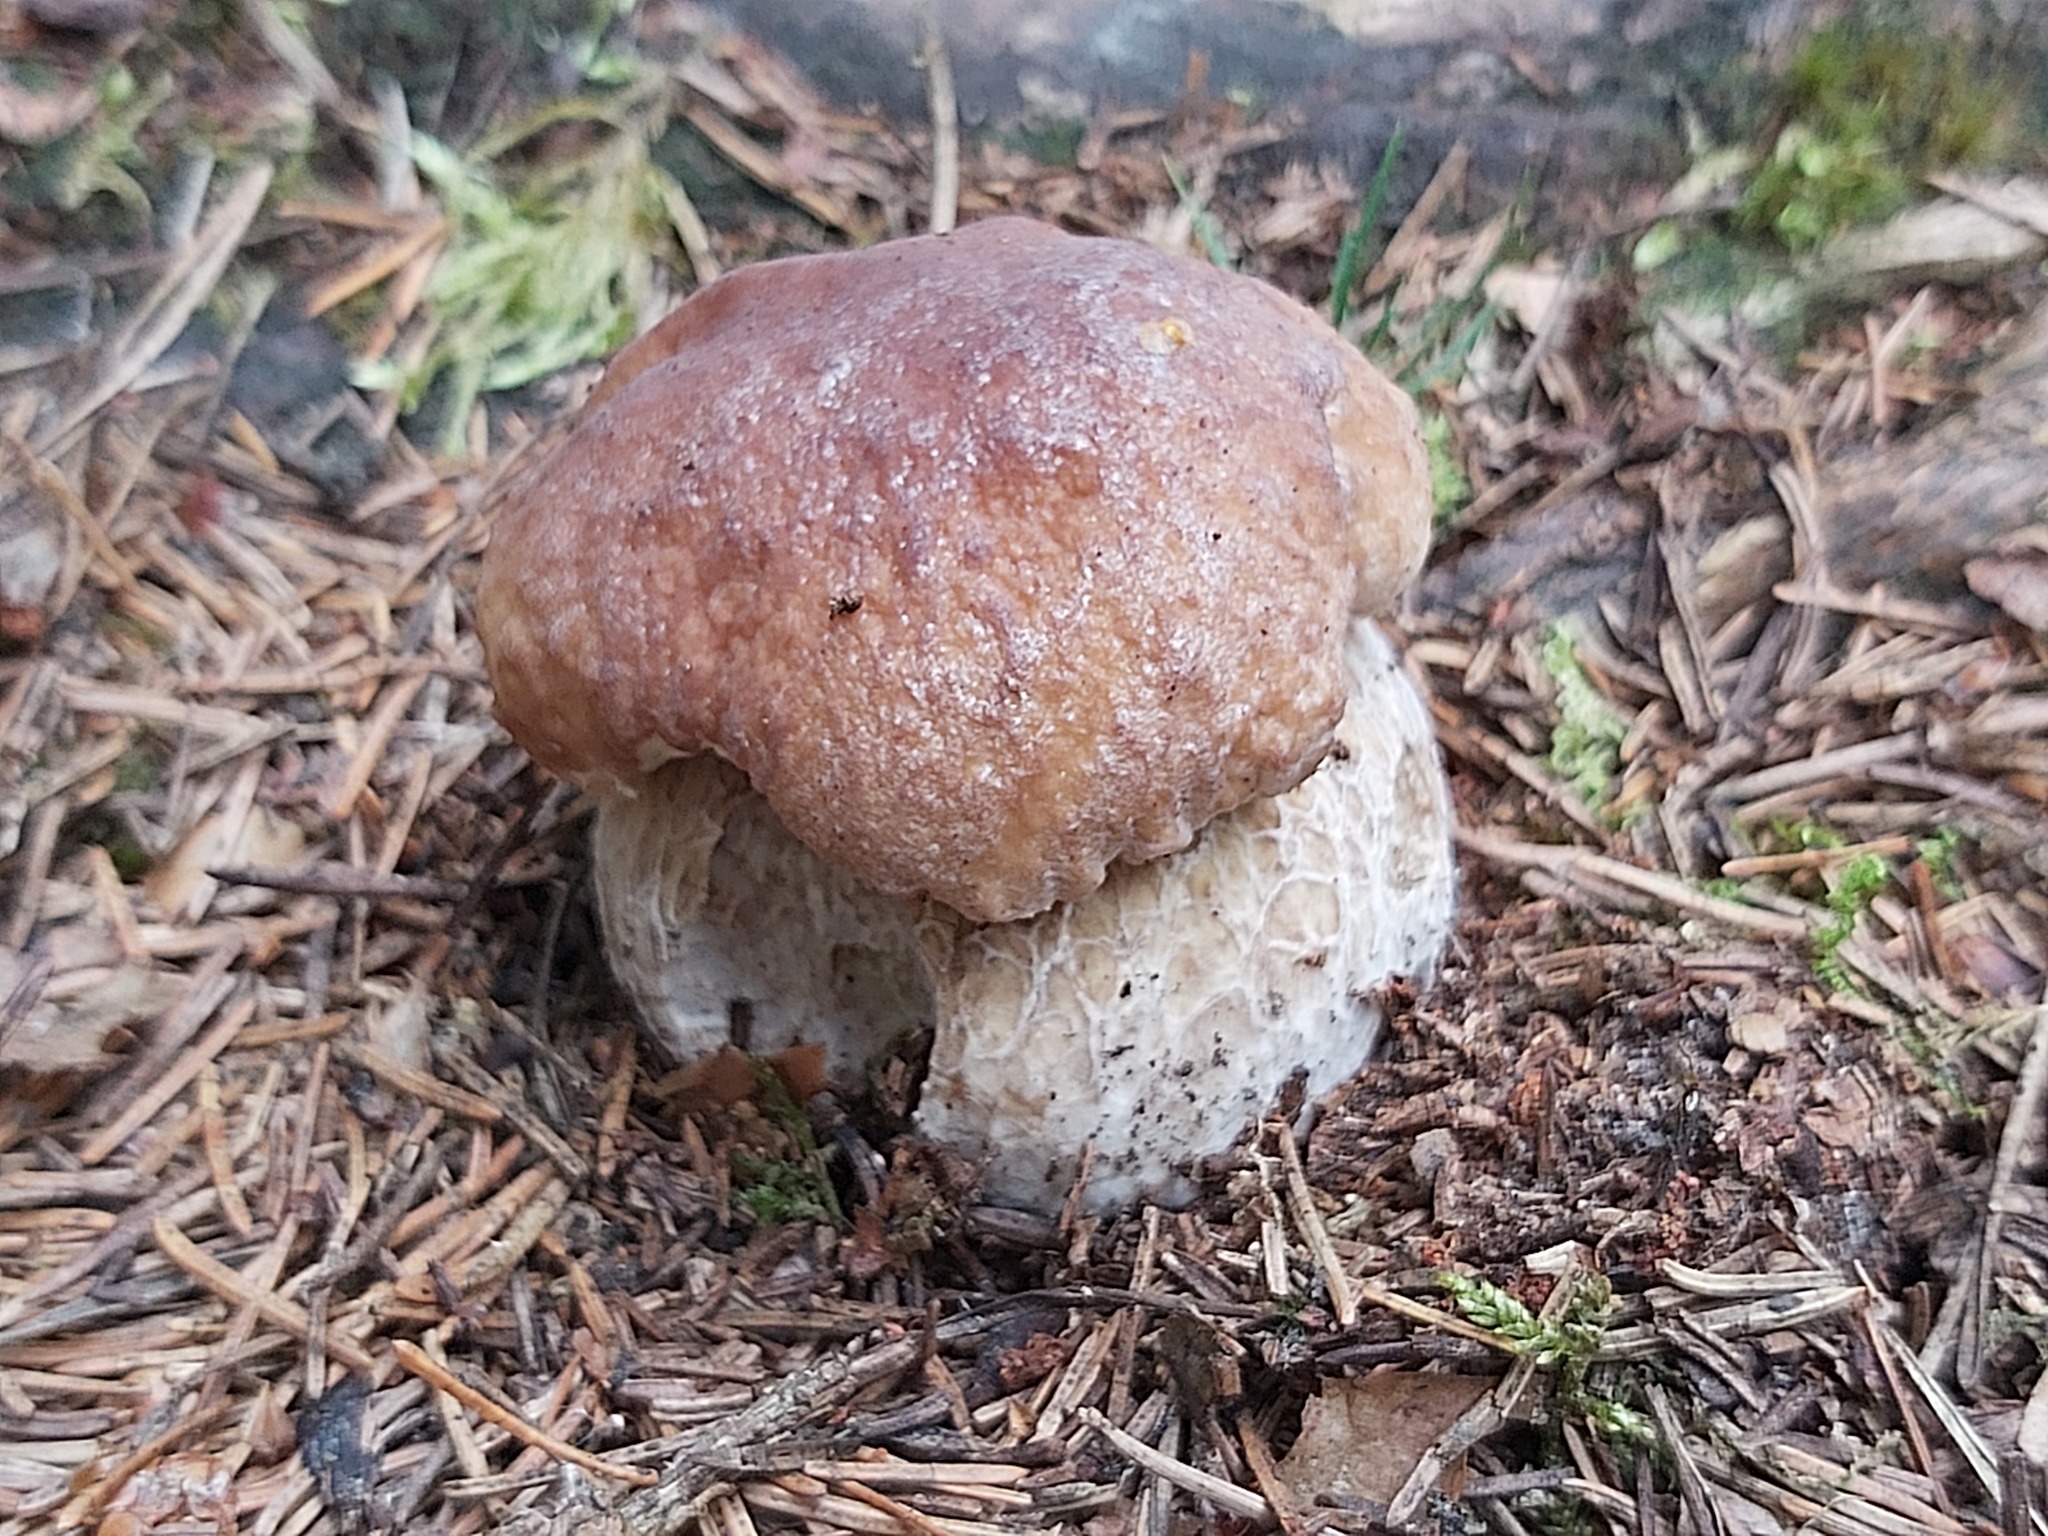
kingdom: Fungi
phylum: Basidiomycota
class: Agaricomycetes
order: Boletales
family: Boletaceae
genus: Boletus
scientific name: Boletus edulis
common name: Cep
